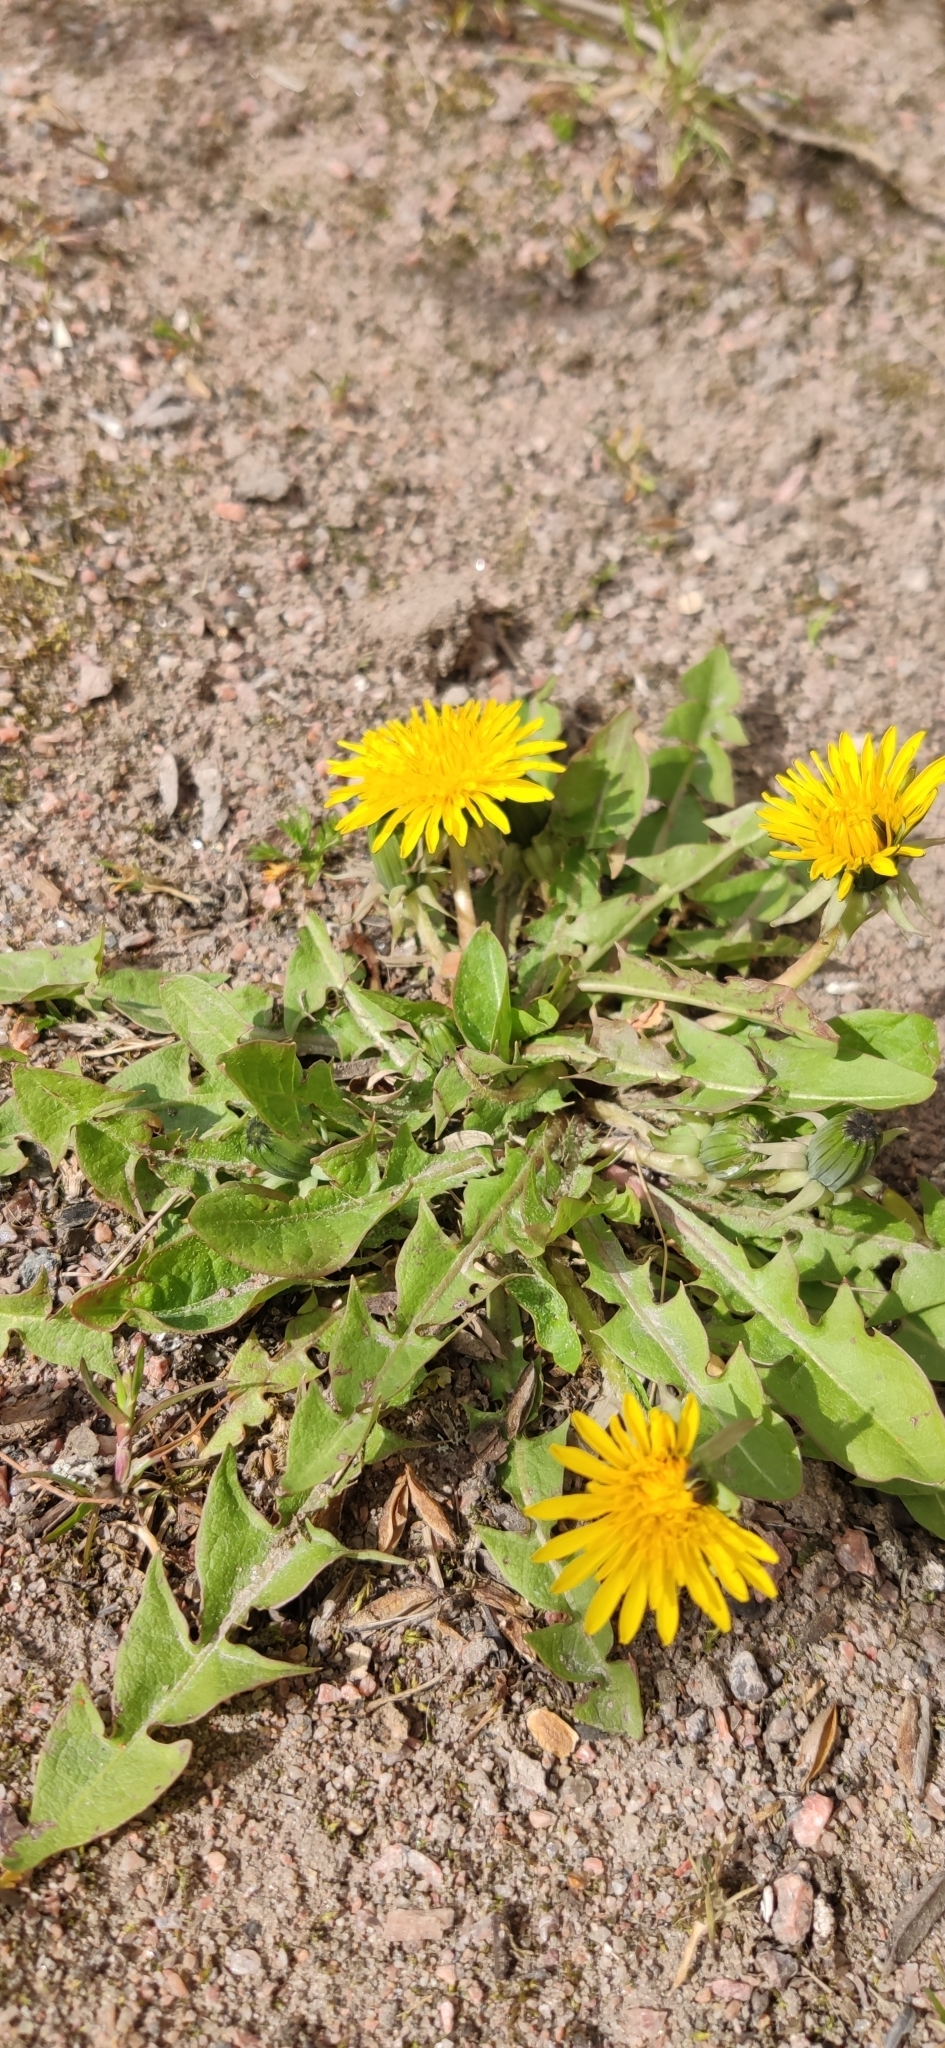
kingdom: Plantae
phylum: Tracheophyta
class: Magnoliopsida
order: Asterales
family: Asteraceae
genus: Taraxacum
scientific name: Taraxacum officinale
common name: Common dandelion
